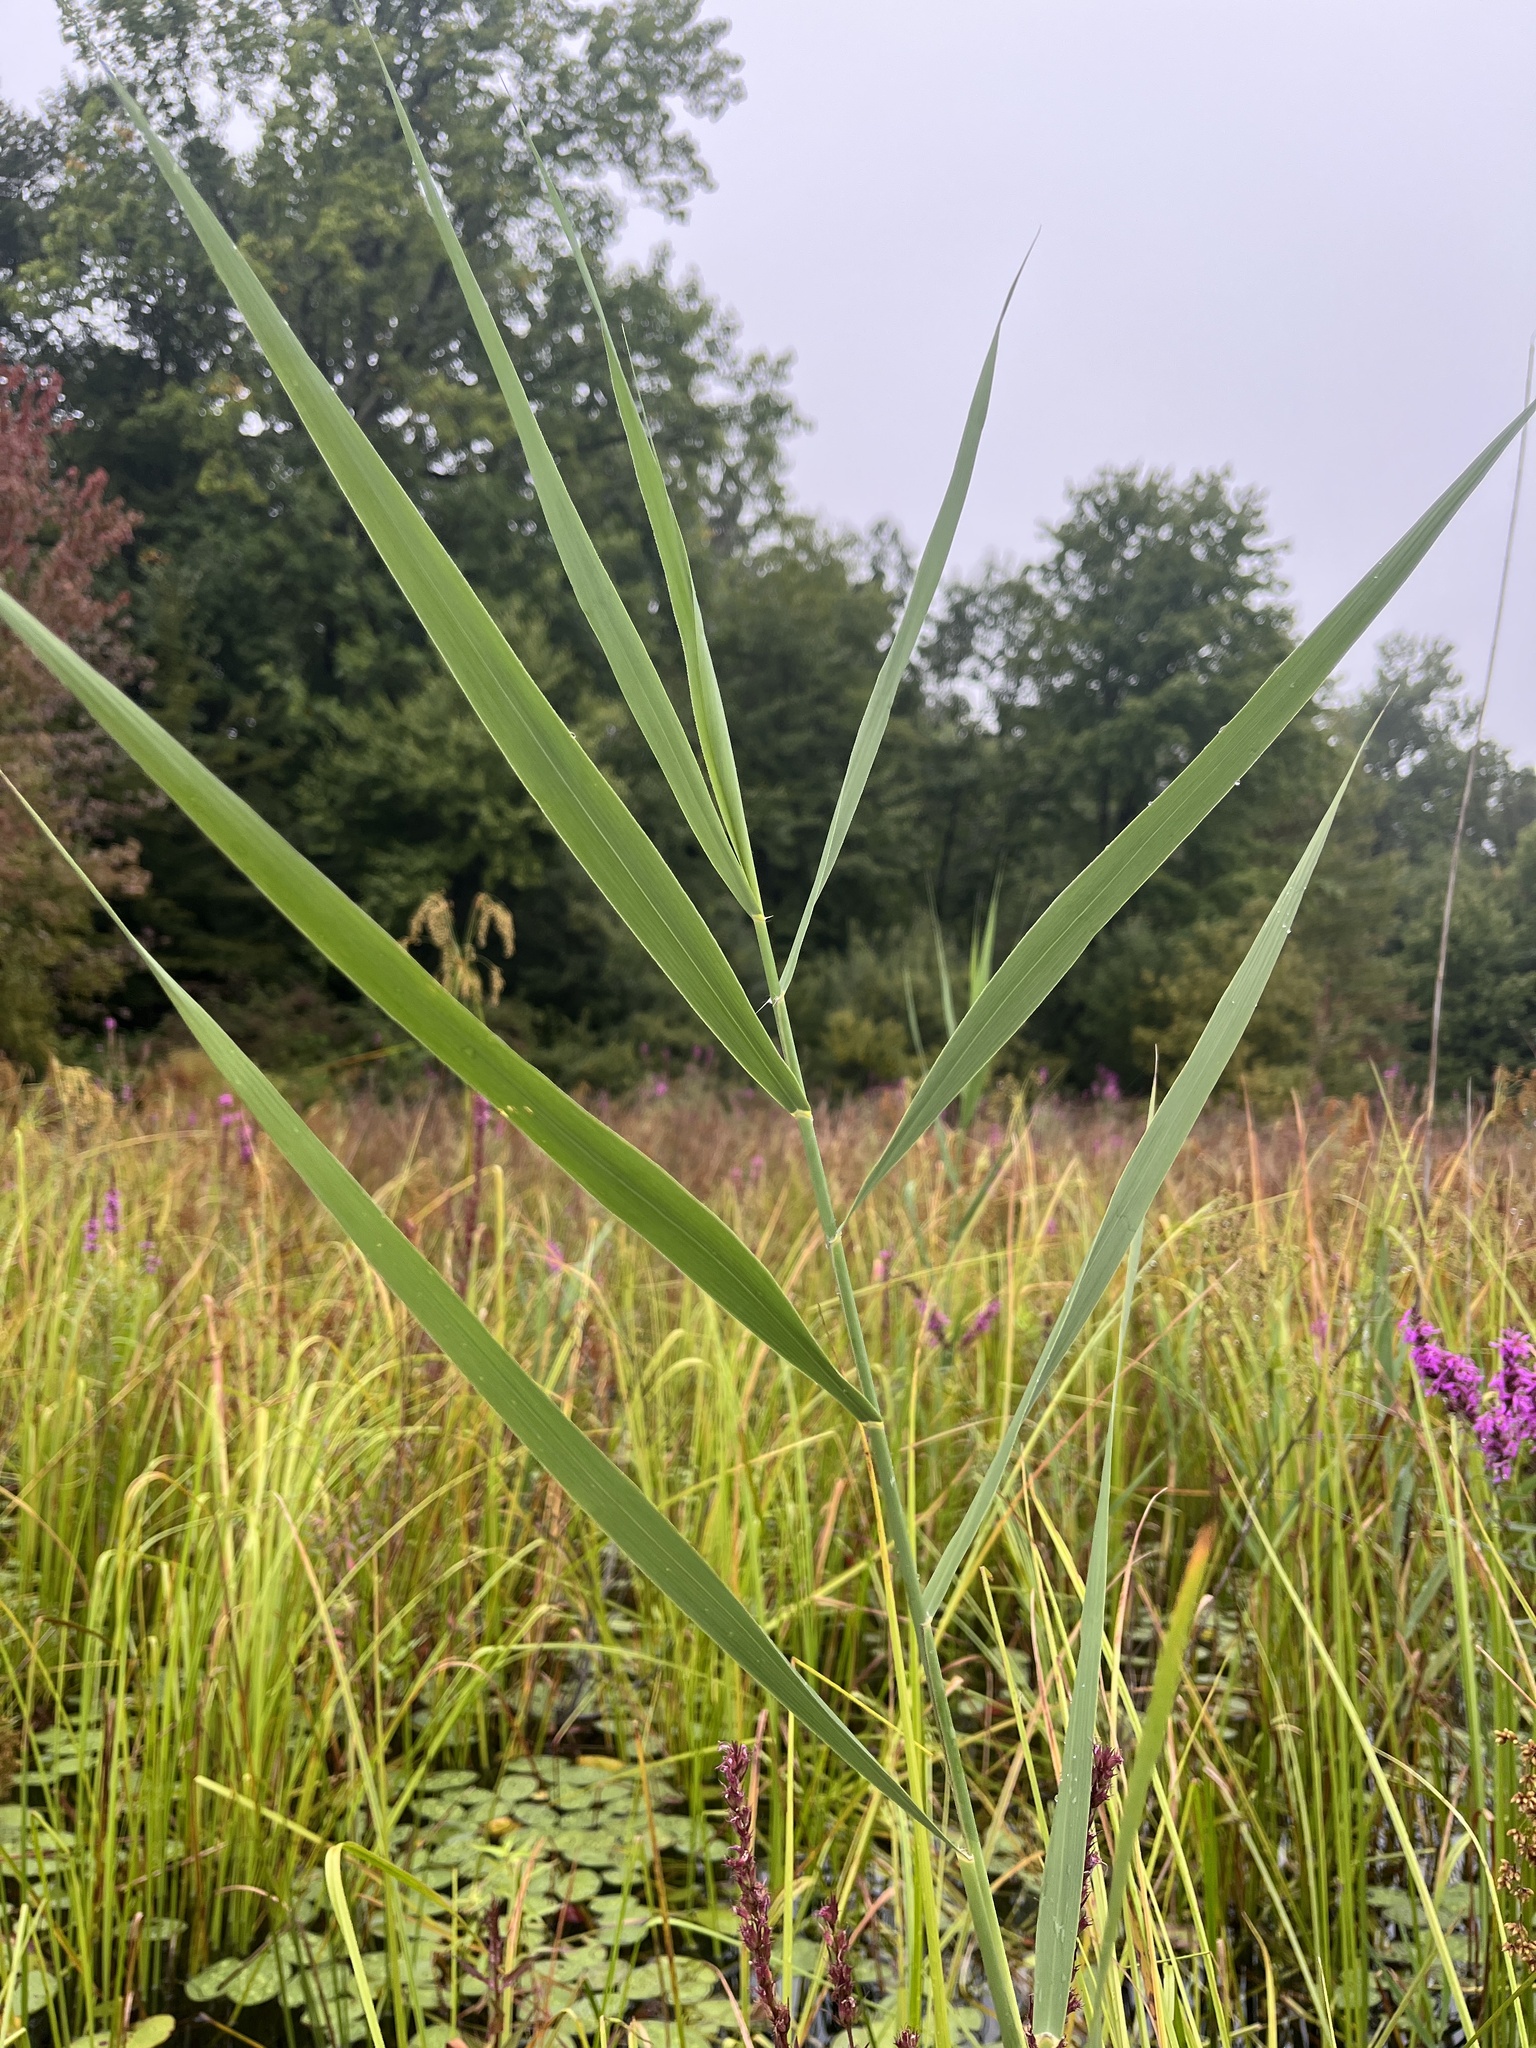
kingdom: Plantae
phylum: Tracheophyta
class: Liliopsida
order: Poales
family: Poaceae
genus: Phragmites
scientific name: Phragmites australis
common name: Common reed
